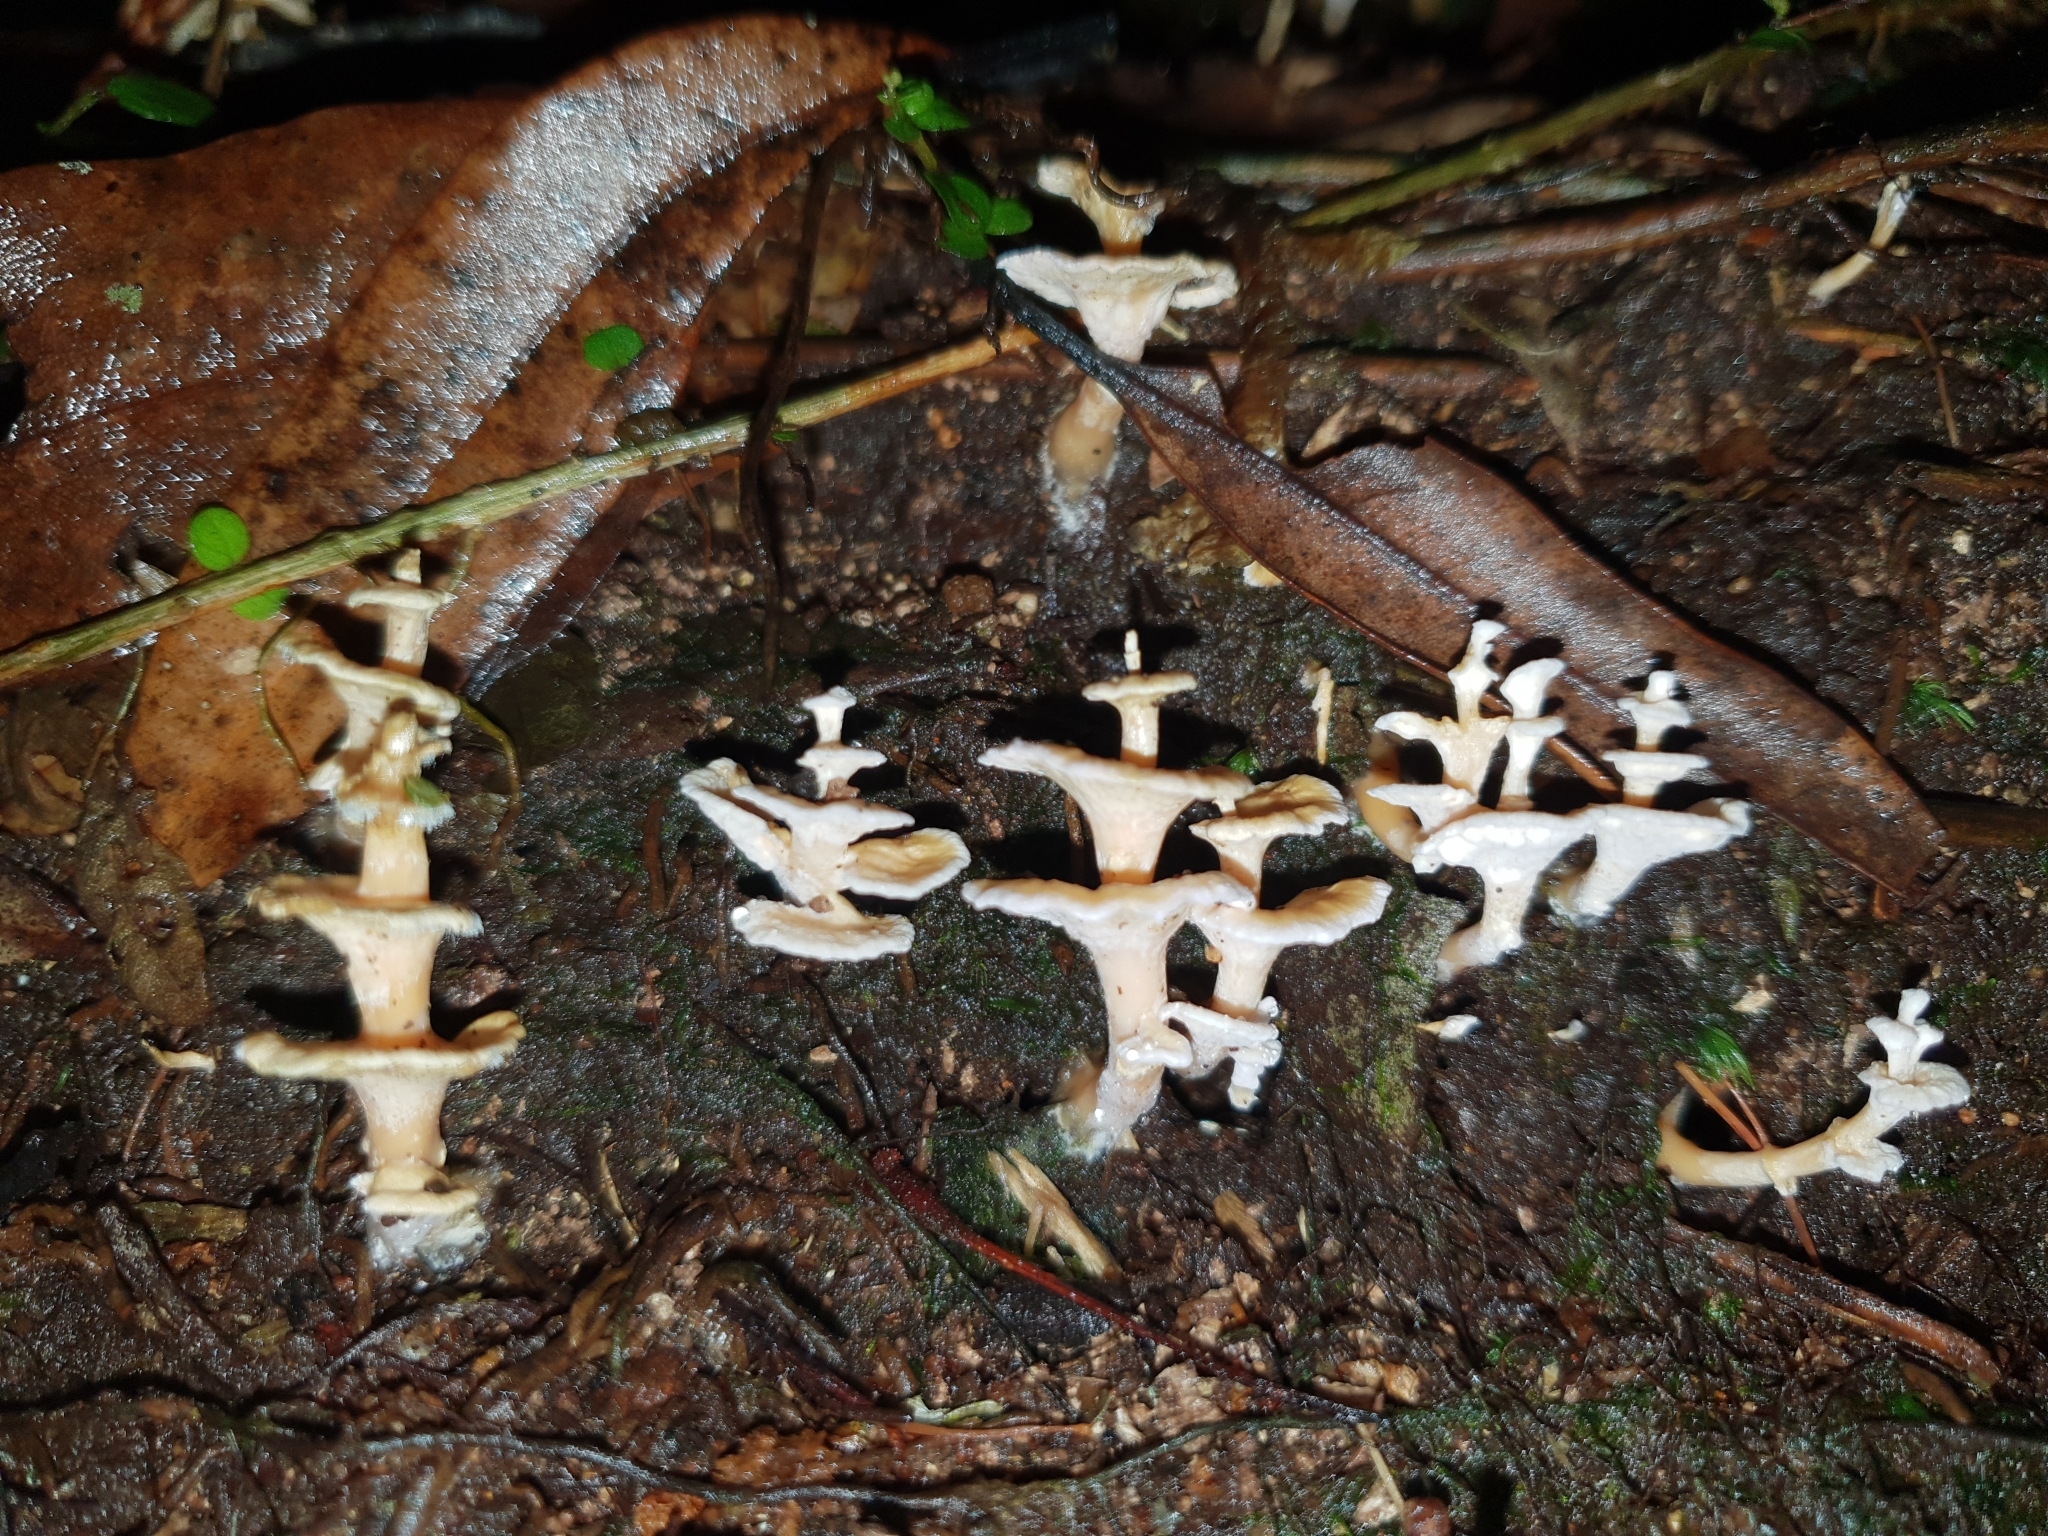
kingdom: Fungi
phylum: Basidiomycota
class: Agaricomycetes
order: Amylocorticiales
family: Amylocorticiaceae
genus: Podoserpula
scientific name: Podoserpula pusio
